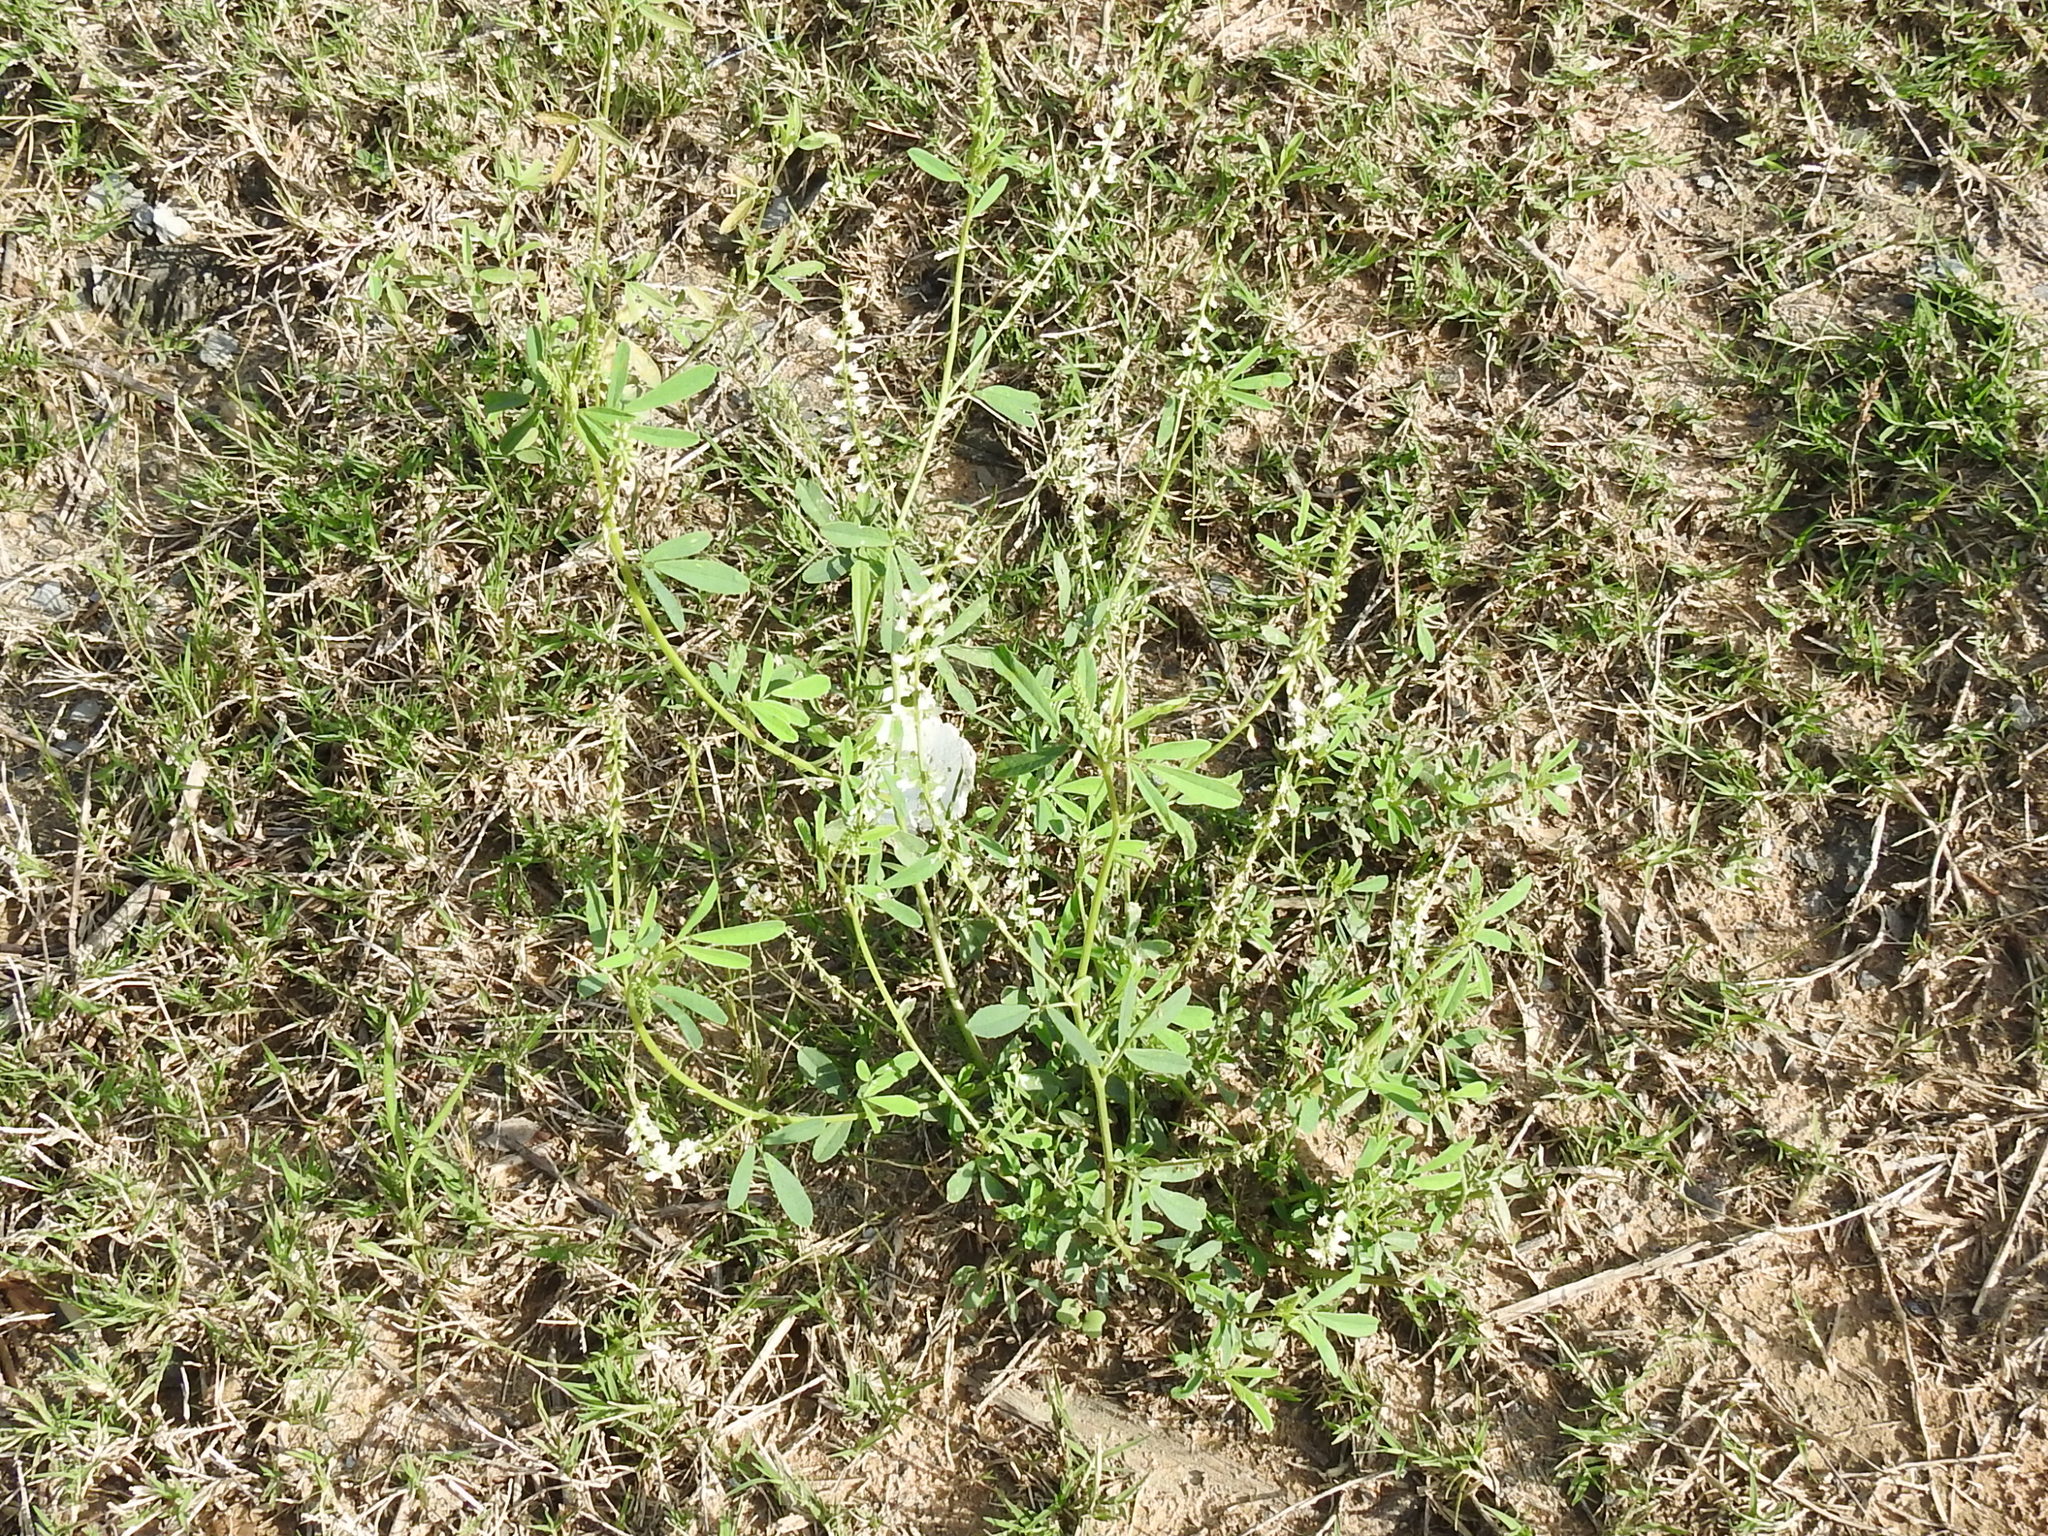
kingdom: Plantae
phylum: Tracheophyta
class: Magnoliopsida
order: Fabales
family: Fabaceae
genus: Melilotus
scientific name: Melilotus albus
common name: White melilot
